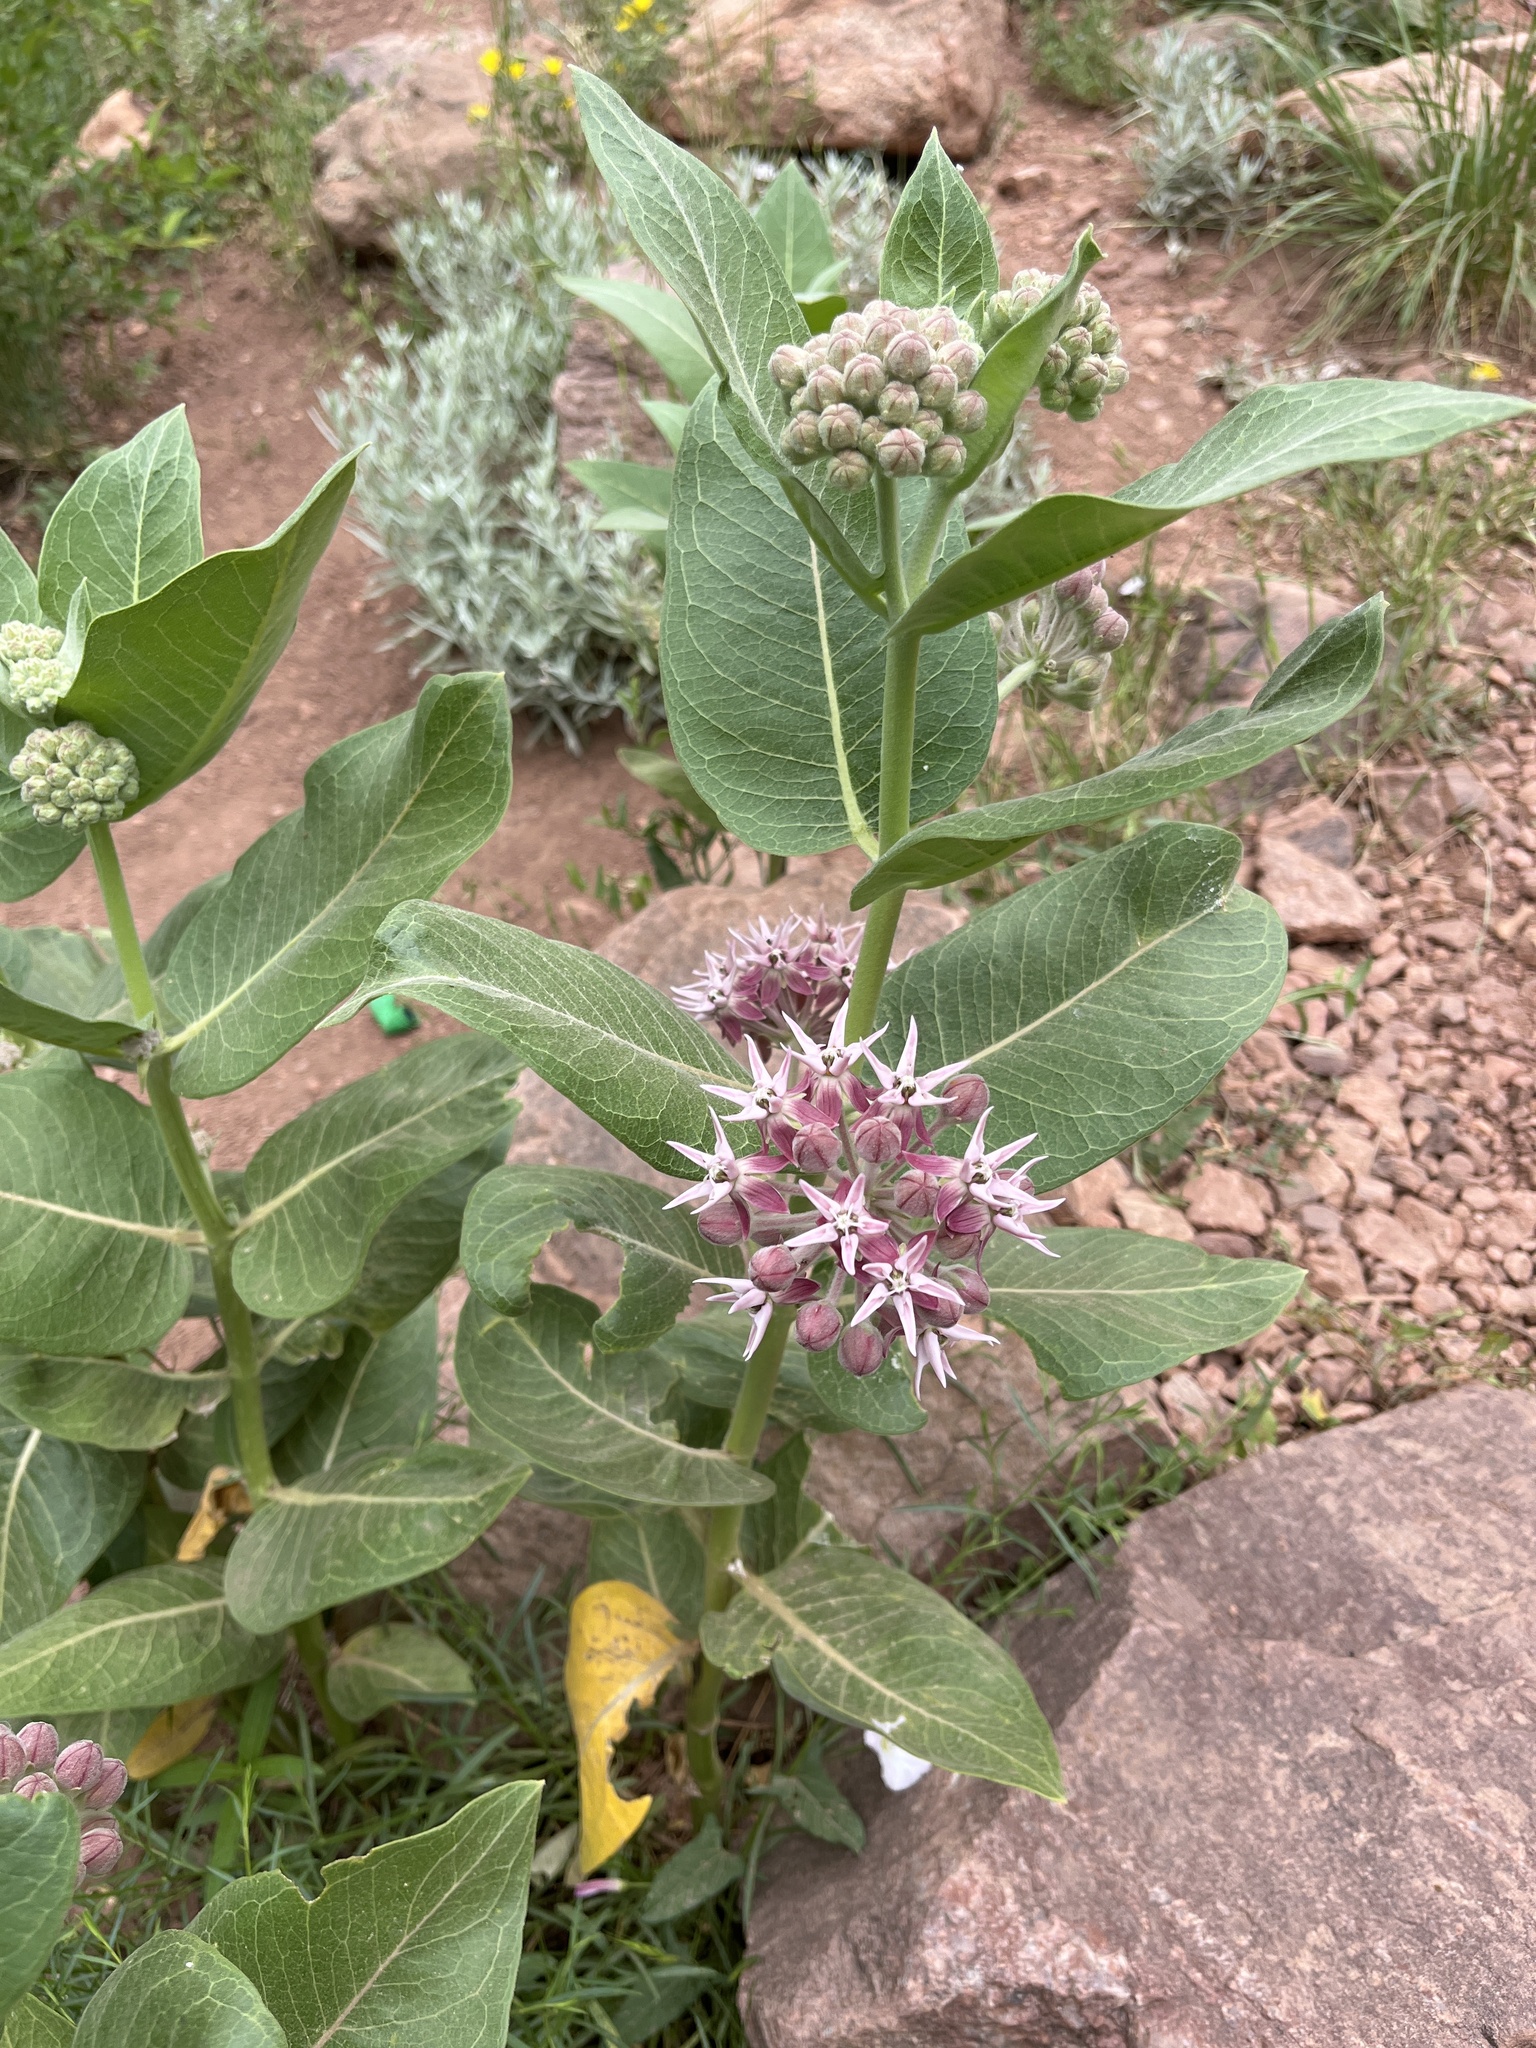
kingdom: Plantae
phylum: Tracheophyta
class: Magnoliopsida
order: Gentianales
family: Apocynaceae
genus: Asclepias
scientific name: Asclepias speciosa
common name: Showy milkweed
